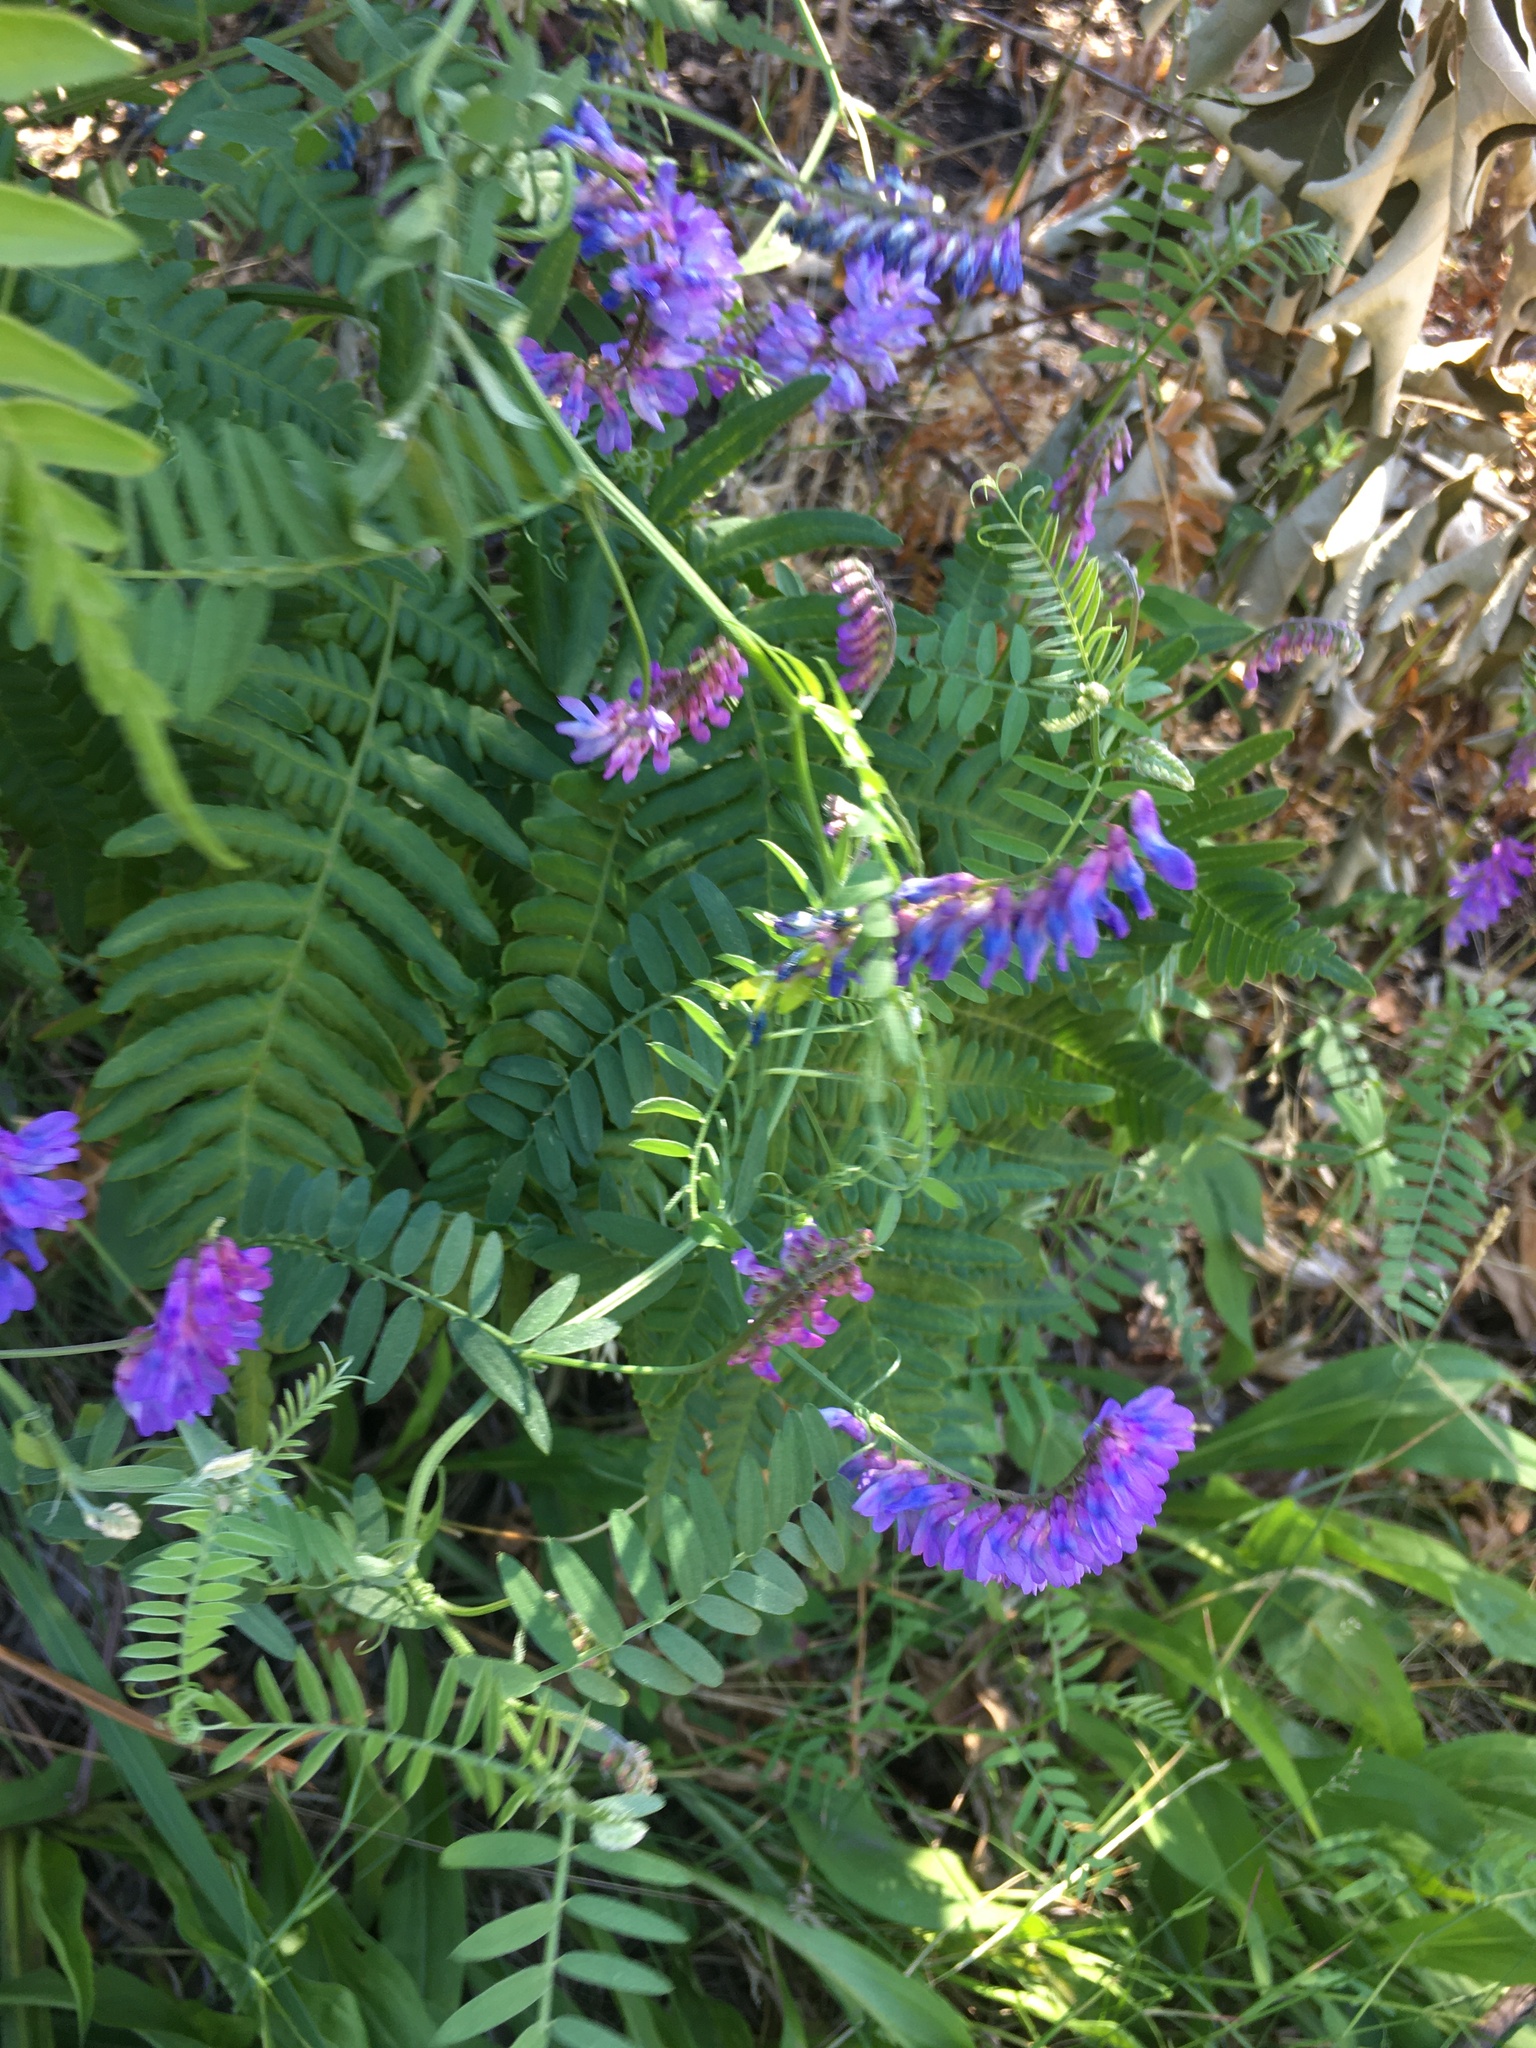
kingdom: Plantae
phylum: Tracheophyta
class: Magnoliopsida
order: Fabales
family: Fabaceae
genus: Vicia
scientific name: Vicia cracca
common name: Bird vetch
